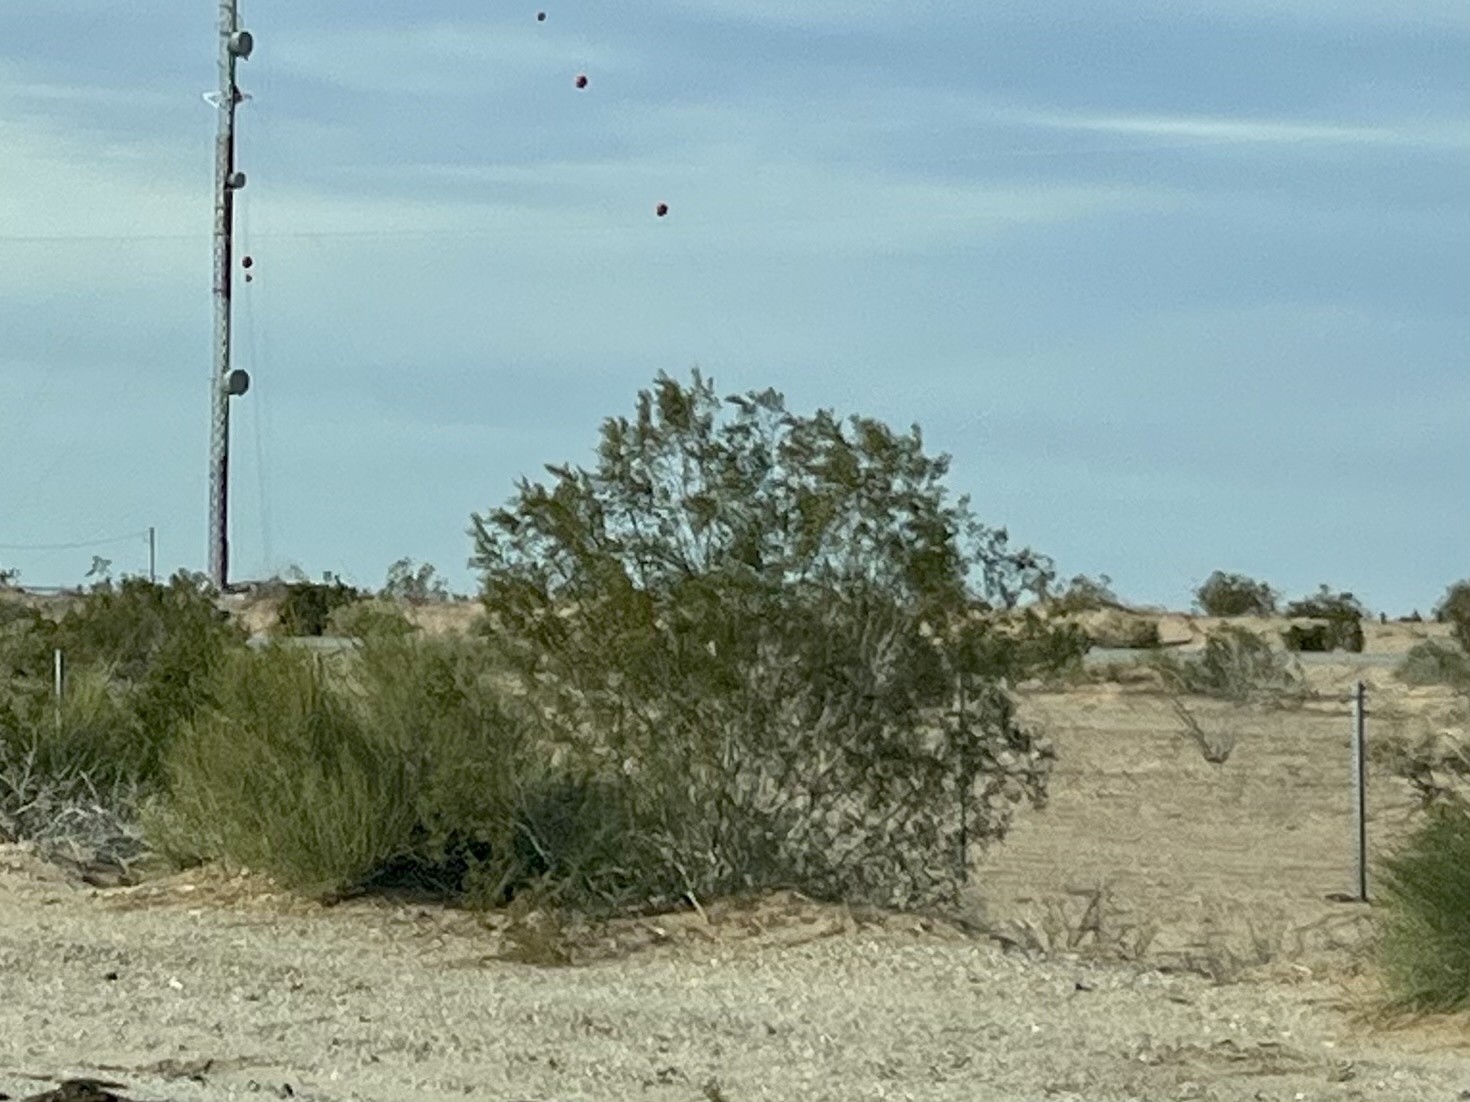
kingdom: Plantae
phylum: Tracheophyta
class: Magnoliopsida
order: Zygophyllales
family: Zygophyllaceae
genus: Larrea
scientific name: Larrea tridentata
